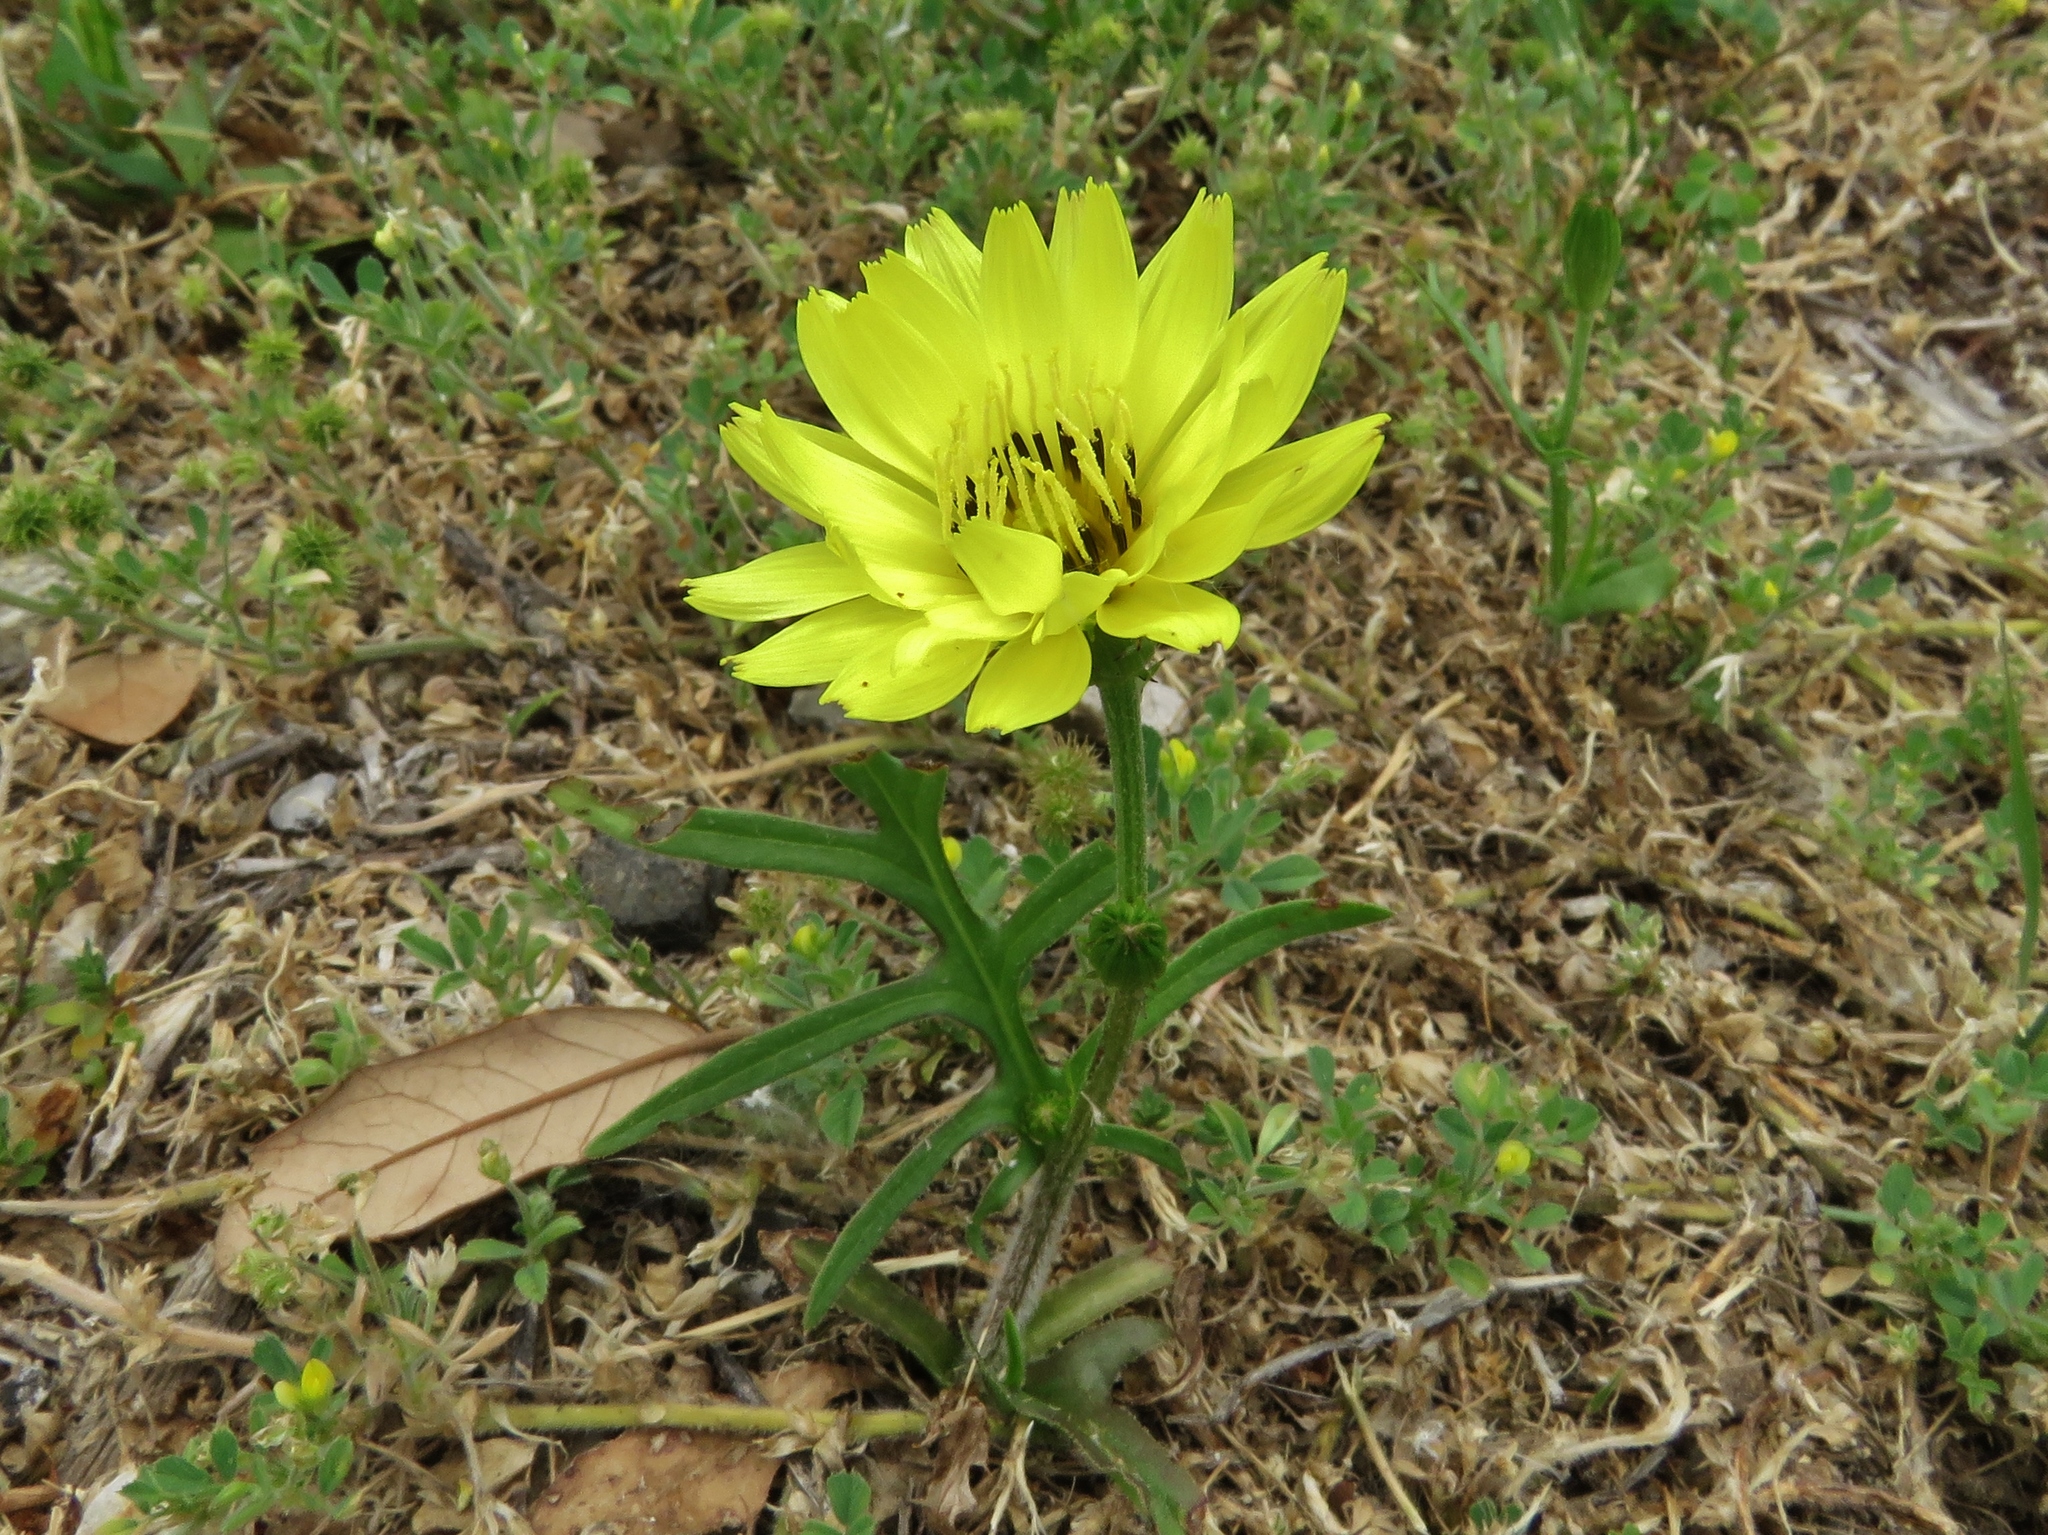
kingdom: Plantae
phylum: Tracheophyta
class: Magnoliopsida
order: Asterales
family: Asteraceae
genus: Pyrrhopappus
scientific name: Pyrrhopappus pauciflorus
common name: Texas false dandelion
